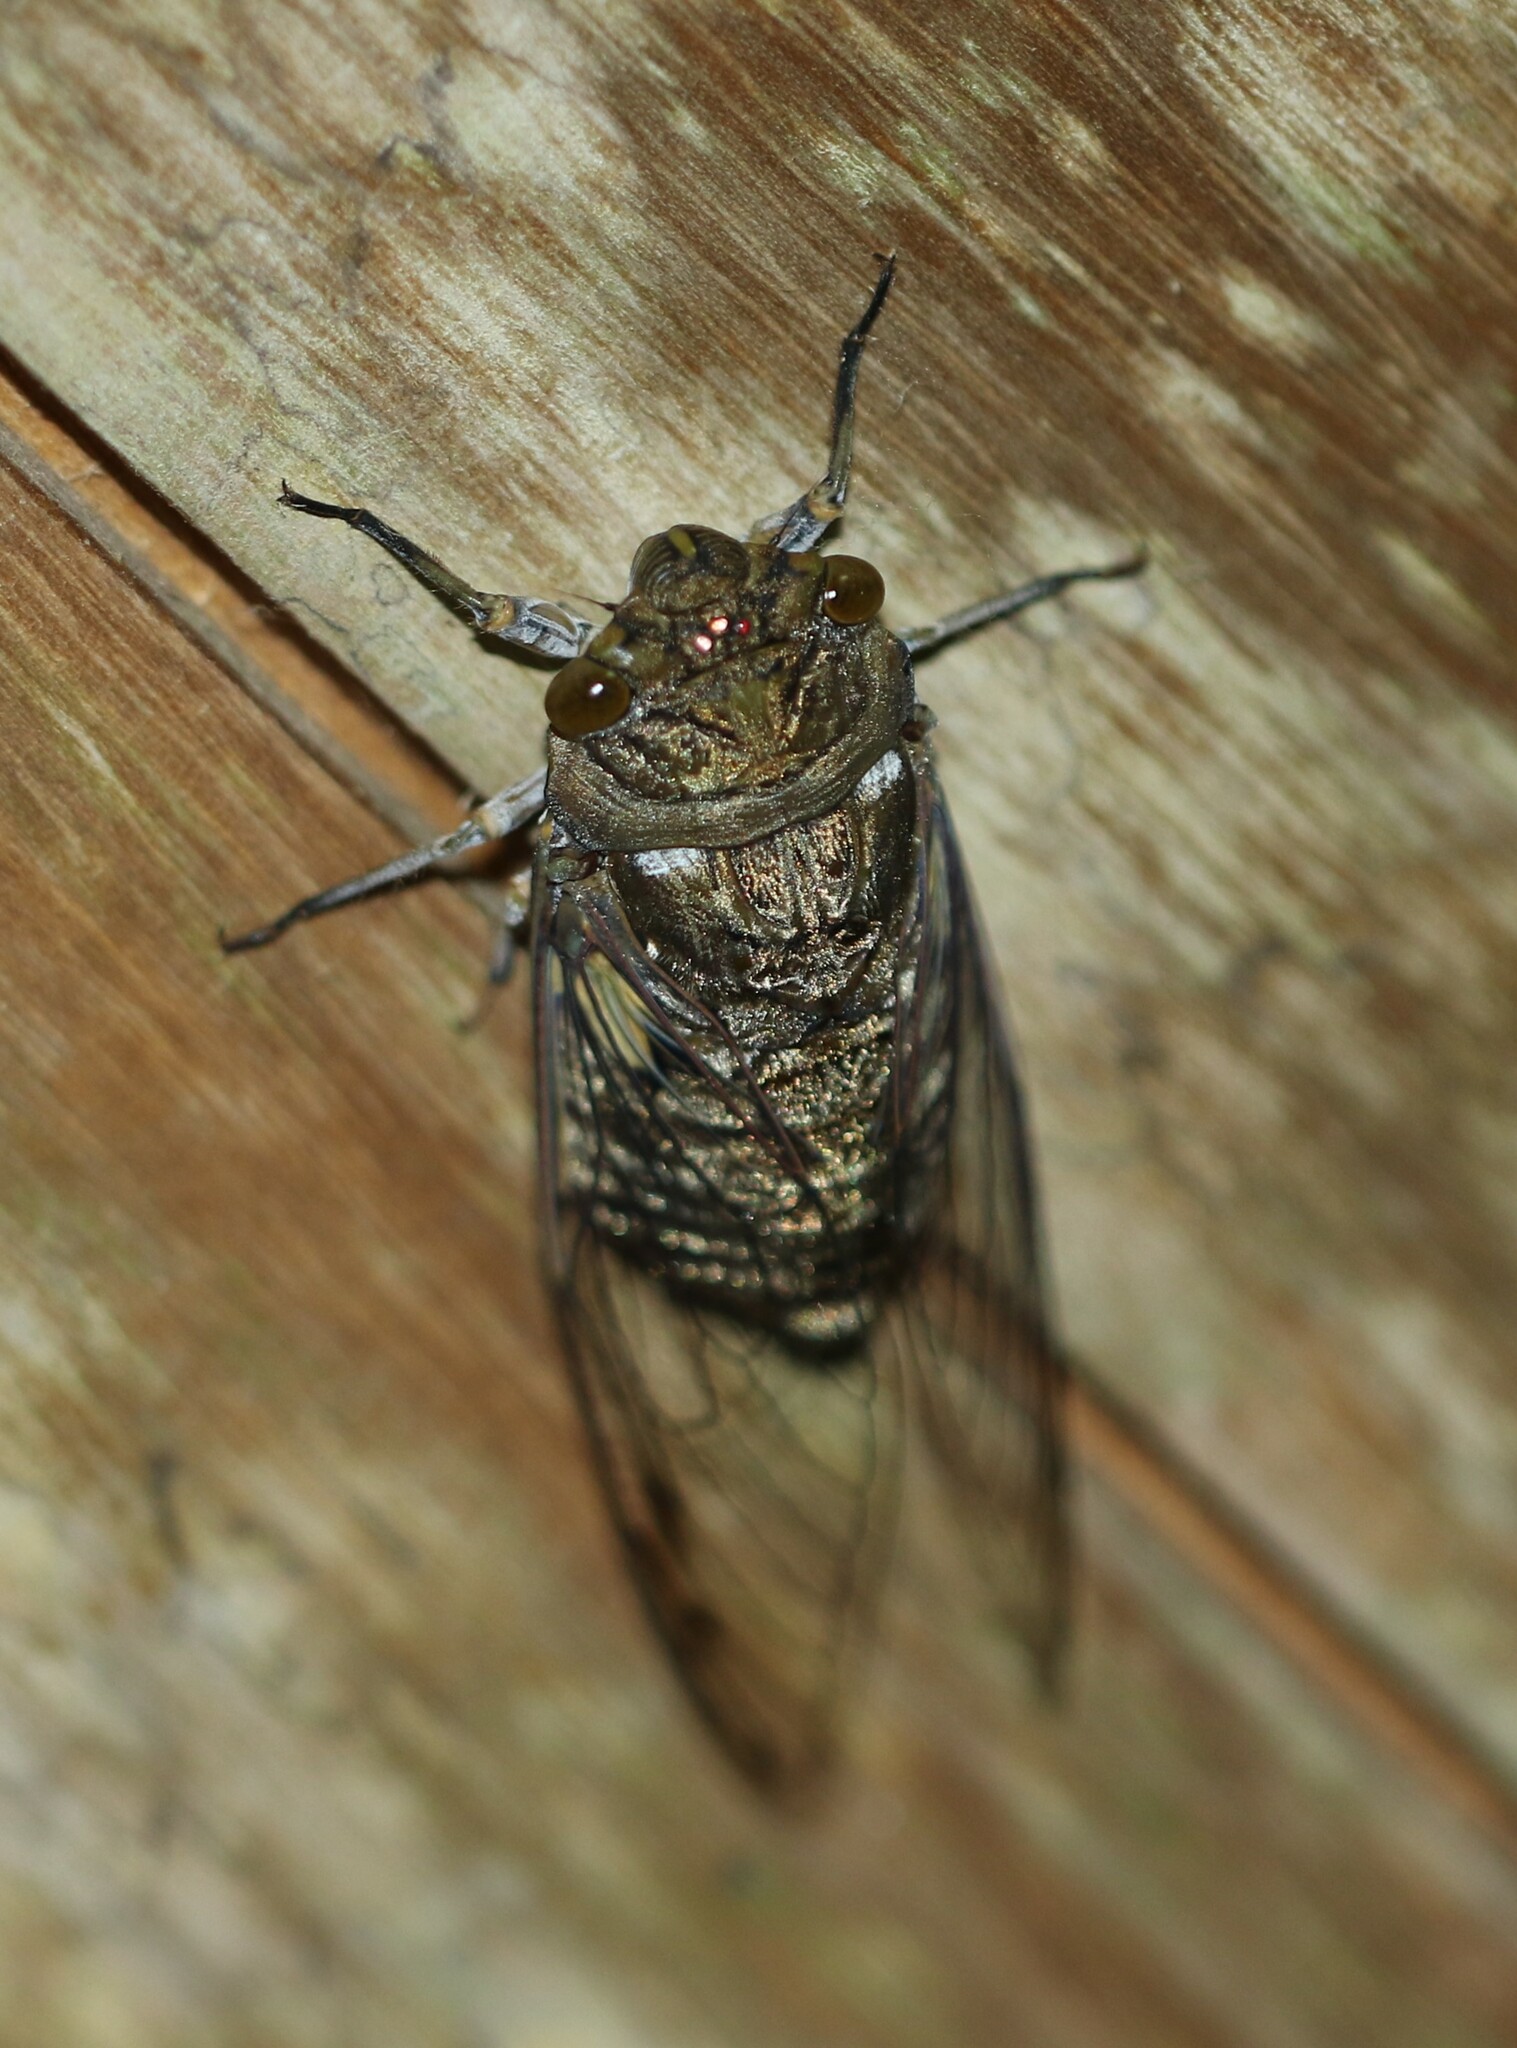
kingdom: Animalia
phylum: Arthropoda
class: Insecta
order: Hemiptera
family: Cicadidae
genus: Quesada
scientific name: Quesada gigas
